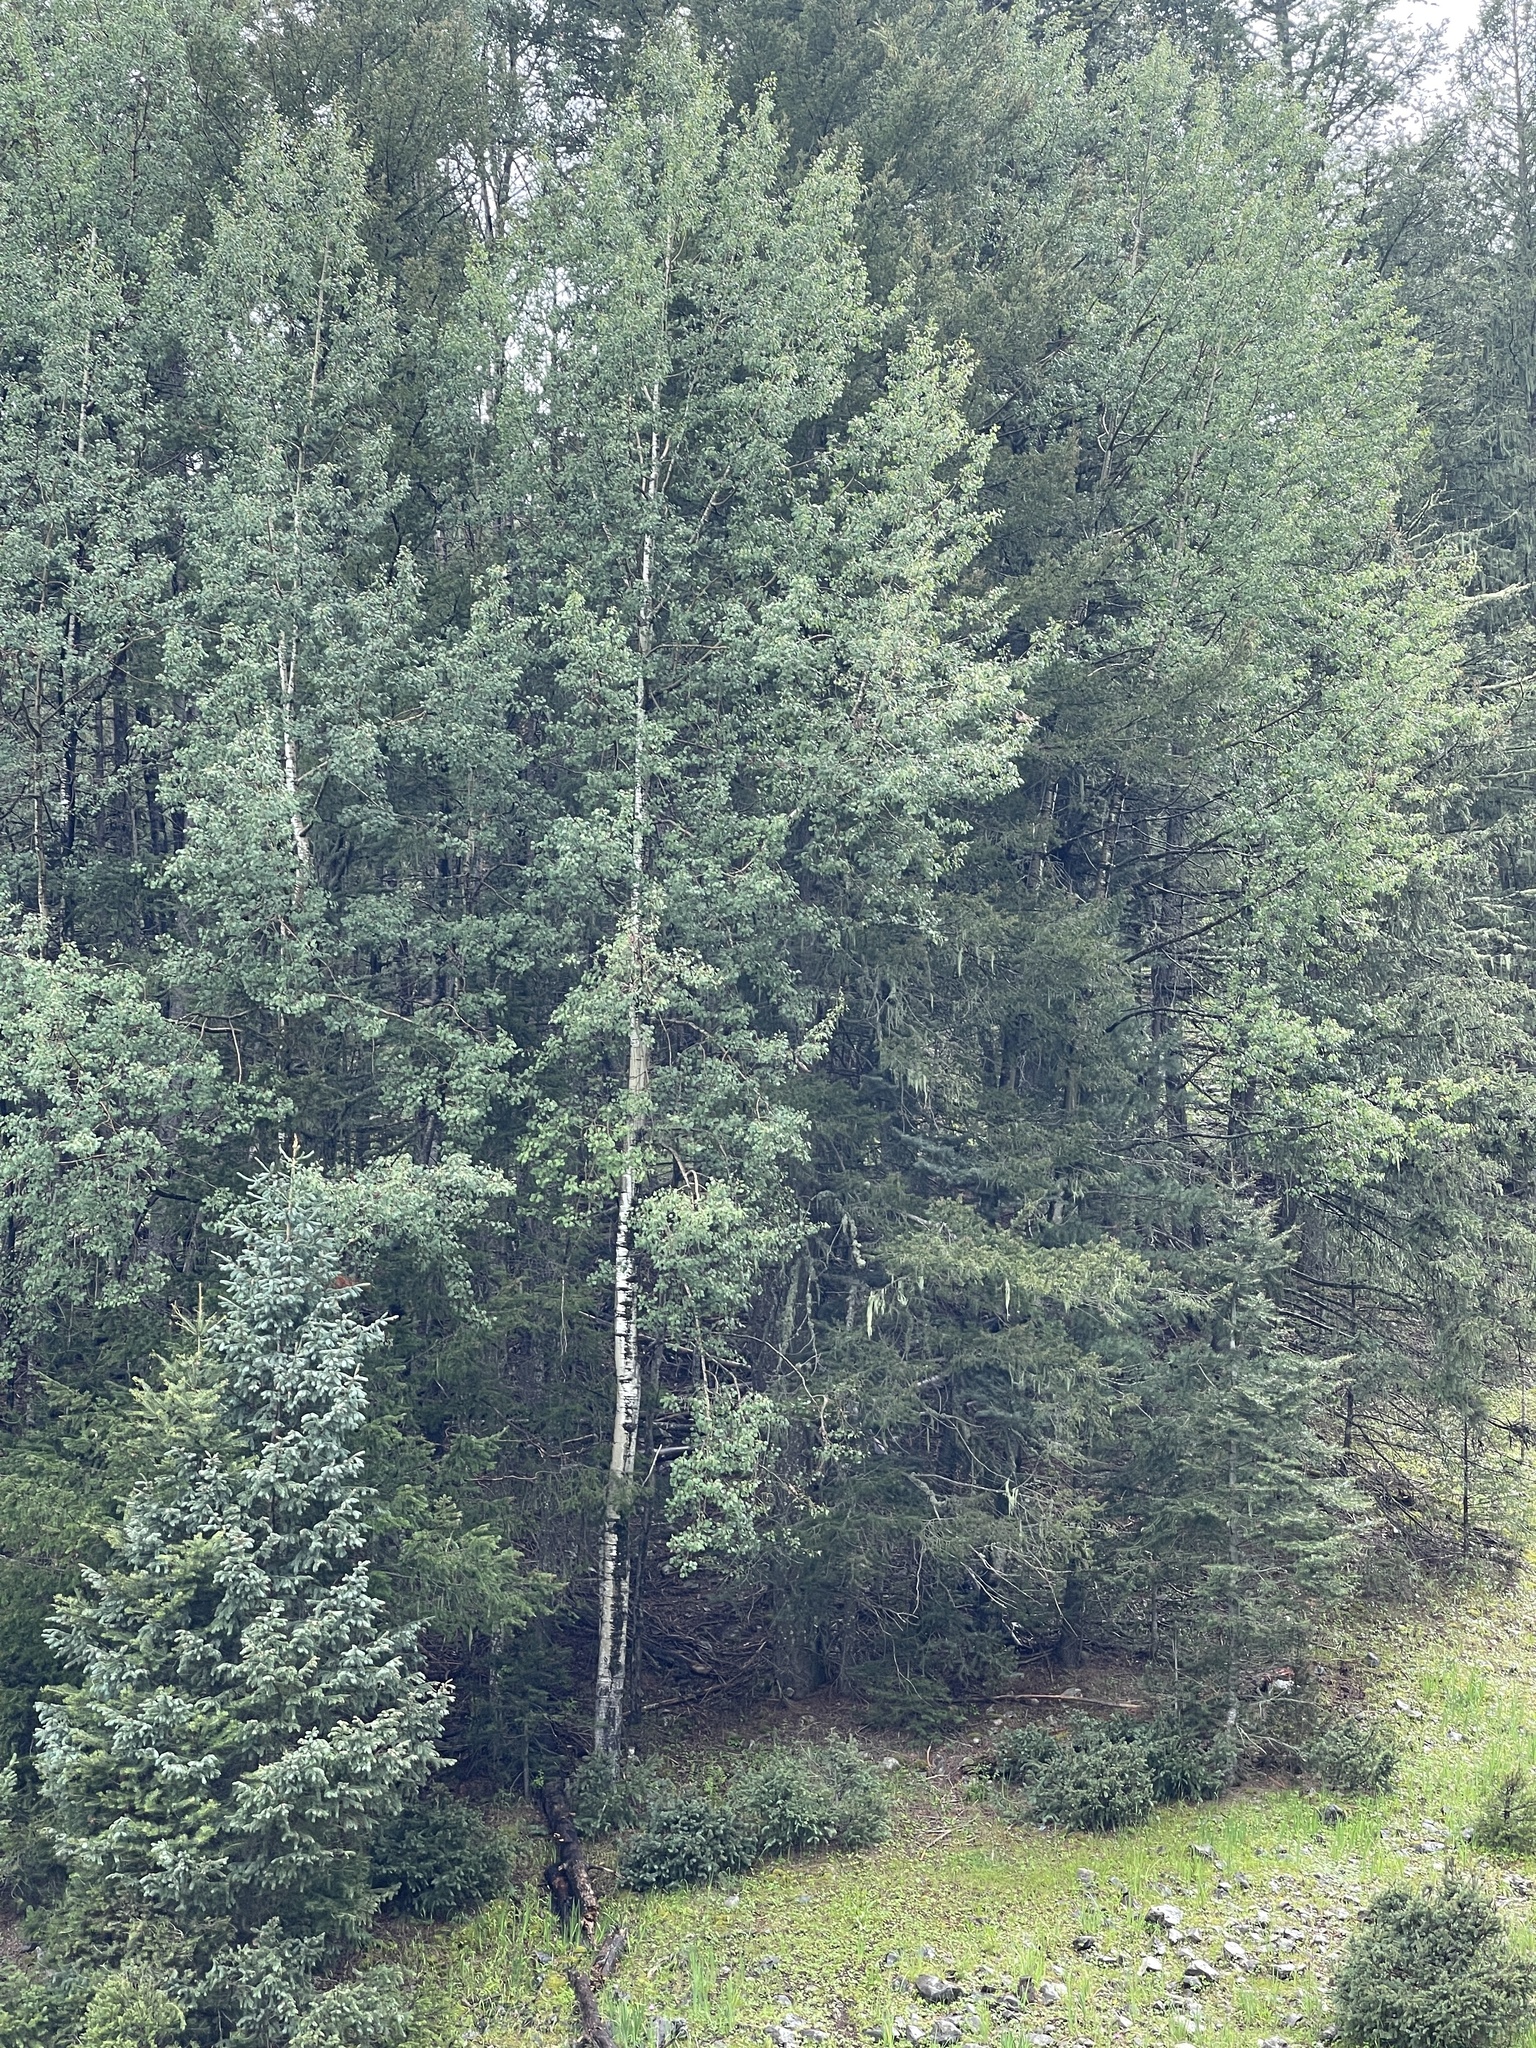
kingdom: Plantae
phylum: Tracheophyta
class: Magnoliopsida
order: Malpighiales
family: Salicaceae
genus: Populus
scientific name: Populus tremuloides
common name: Quaking aspen
